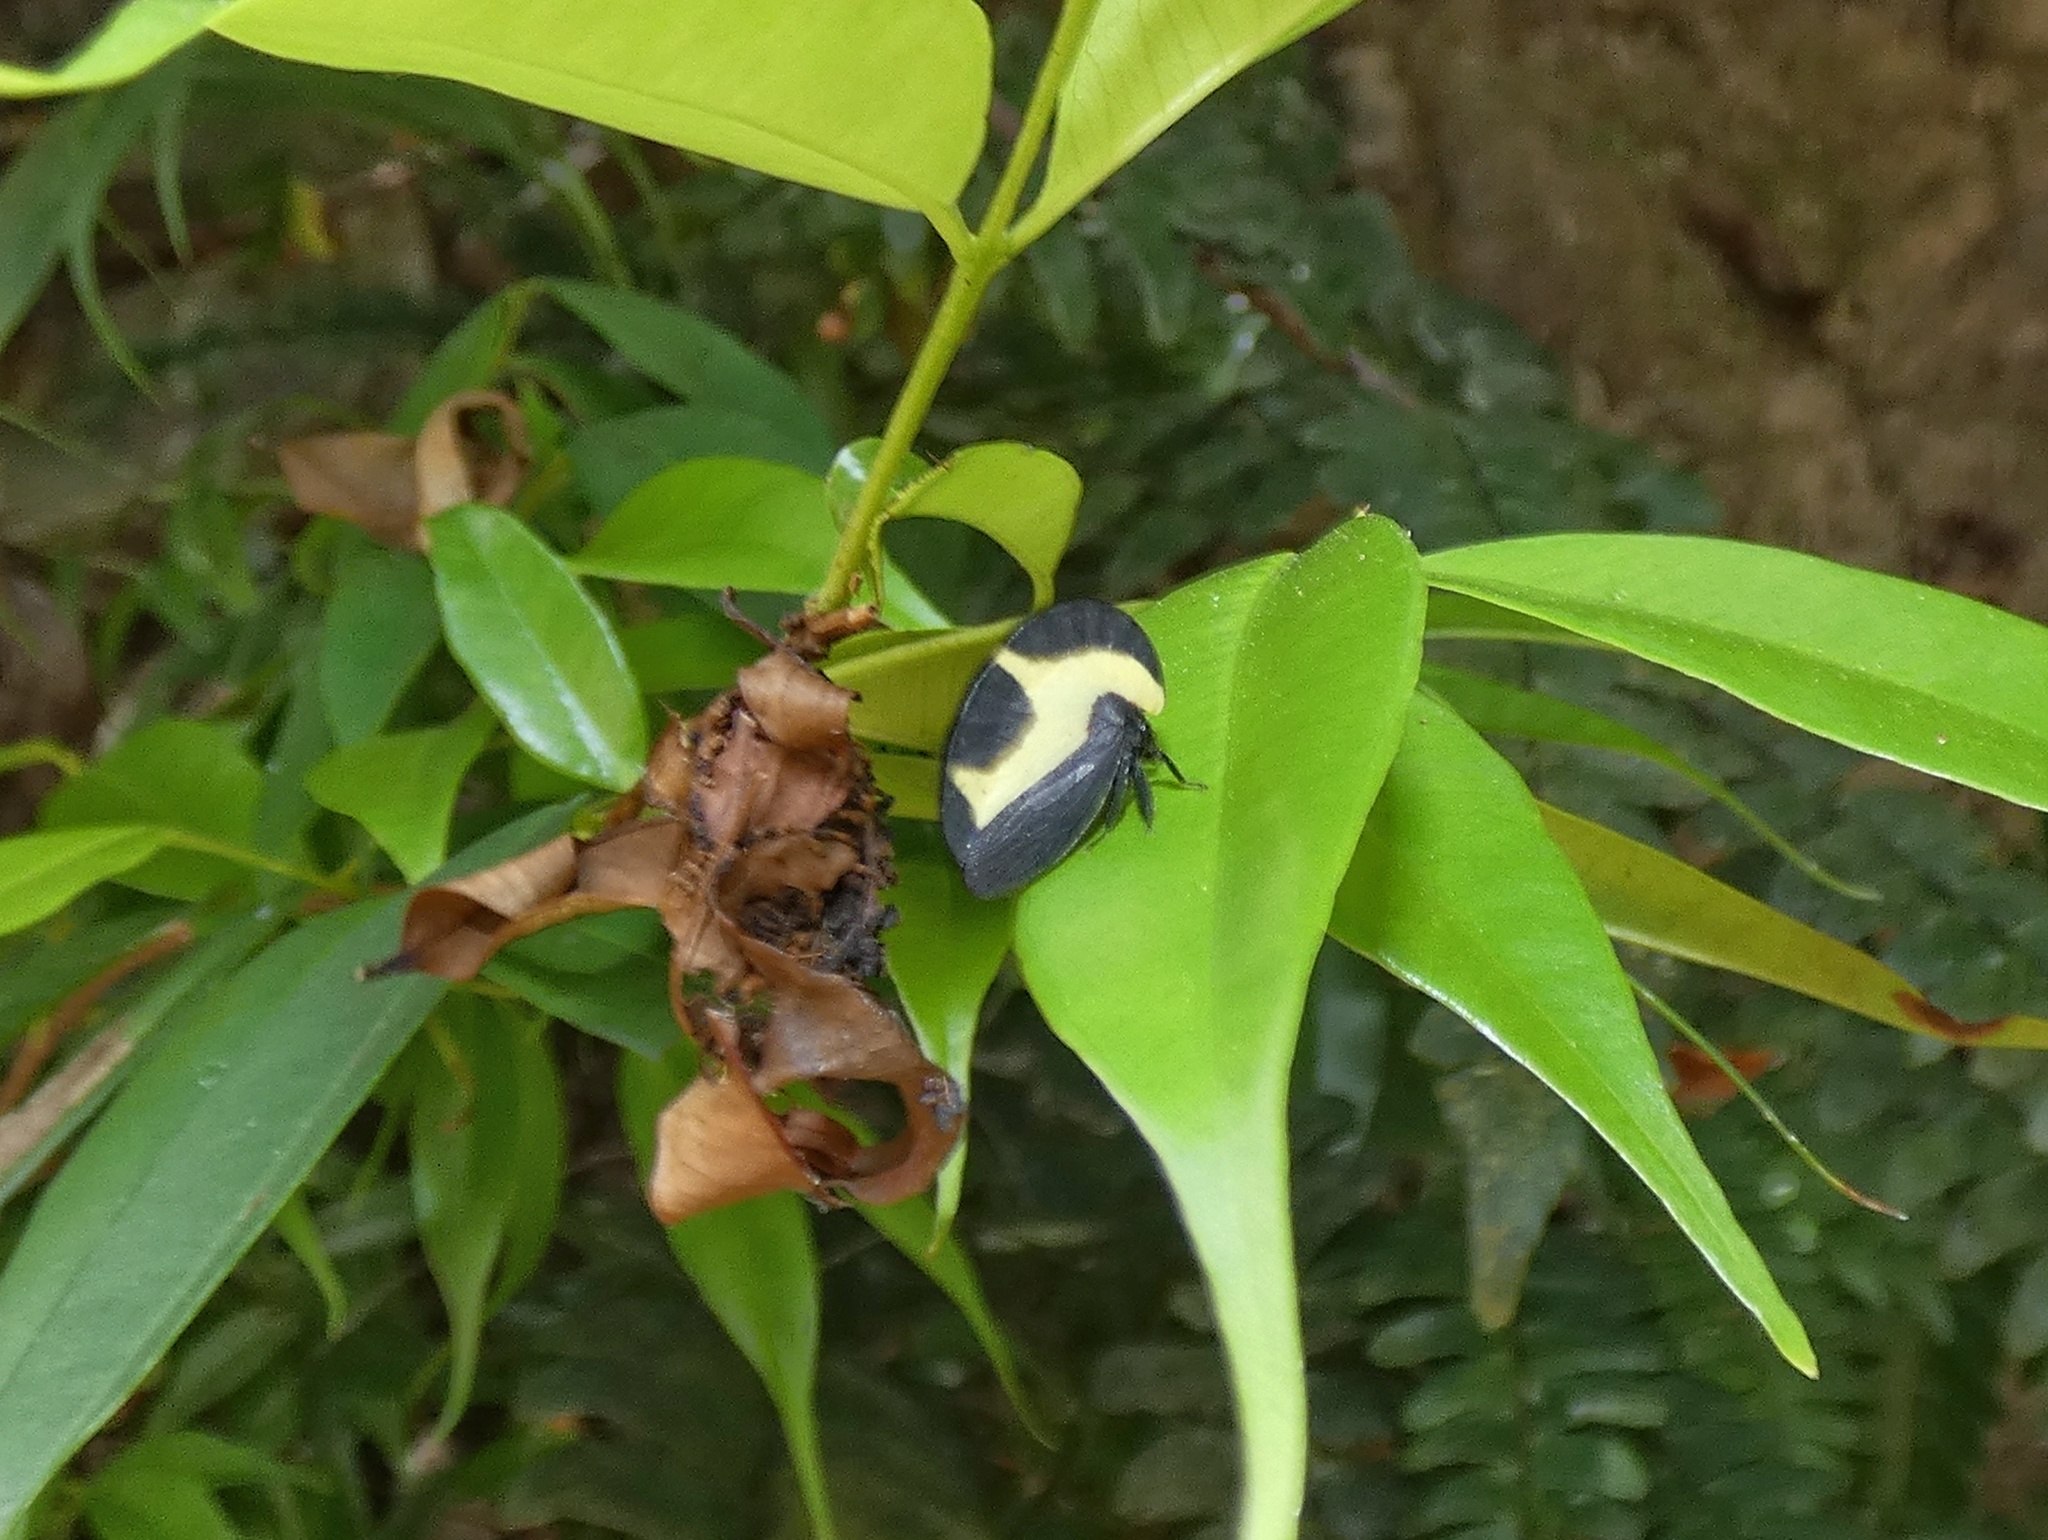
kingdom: Animalia
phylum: Arthropoda
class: Insecta
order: Hemiptera
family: Membracidae
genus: Membracis
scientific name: Membracis trimaculata
